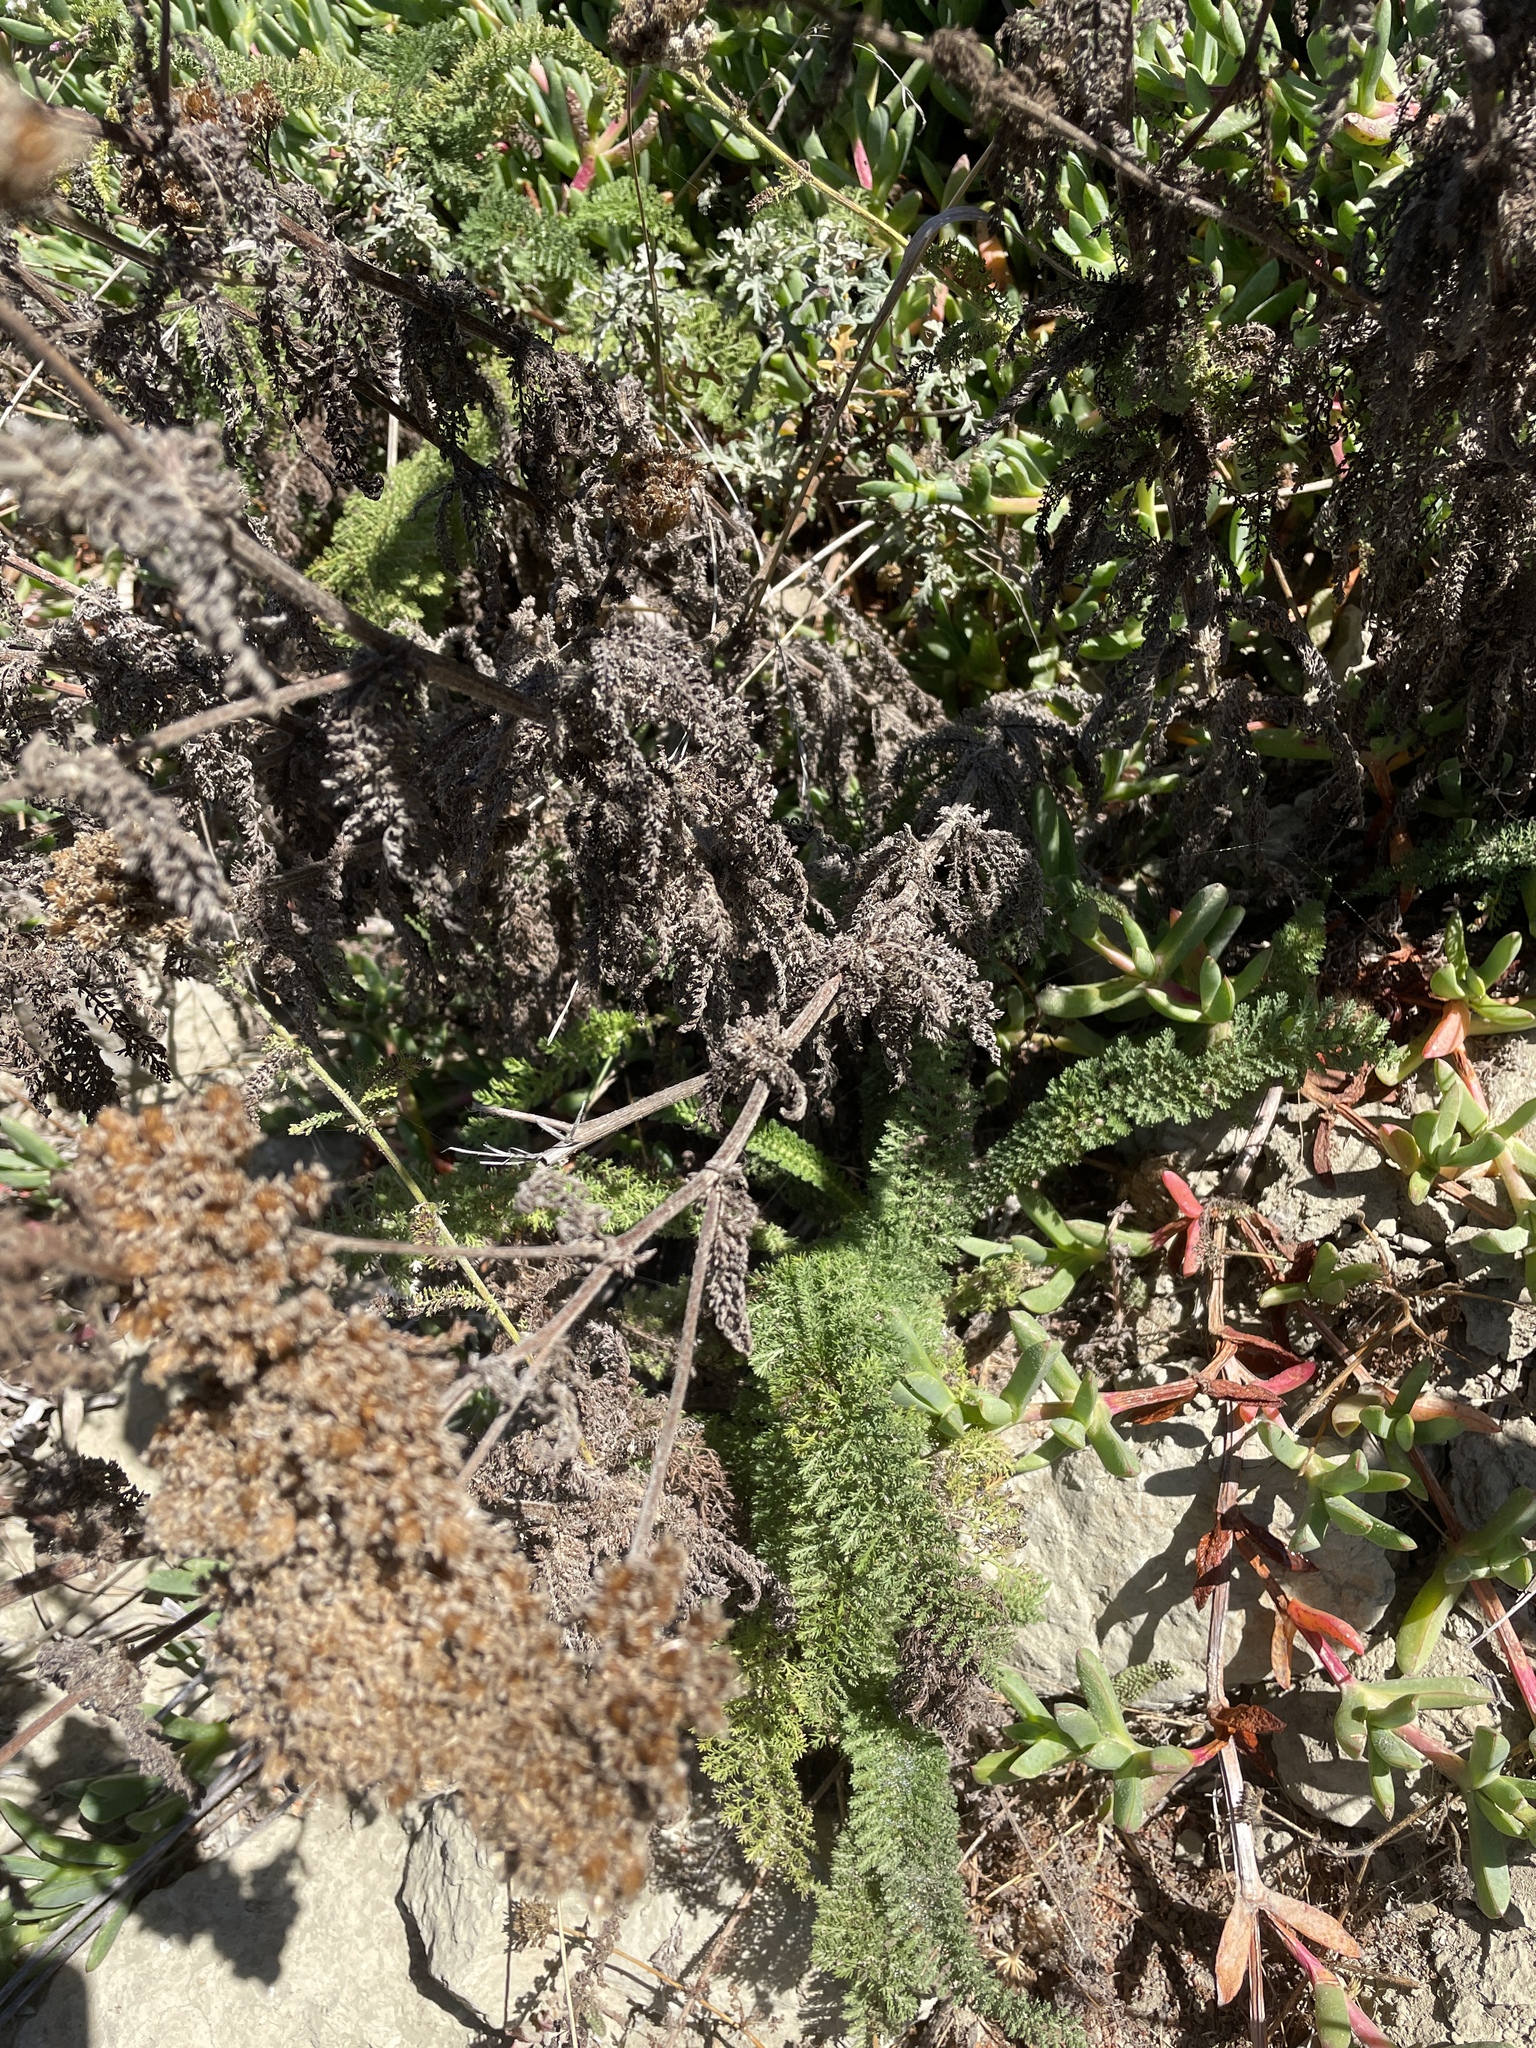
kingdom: Plantae
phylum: Tracheophyta
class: Magnoliopsida
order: Asterales
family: Asteraceae
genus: Achillea
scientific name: Achillea millefolium
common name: Yarrow
